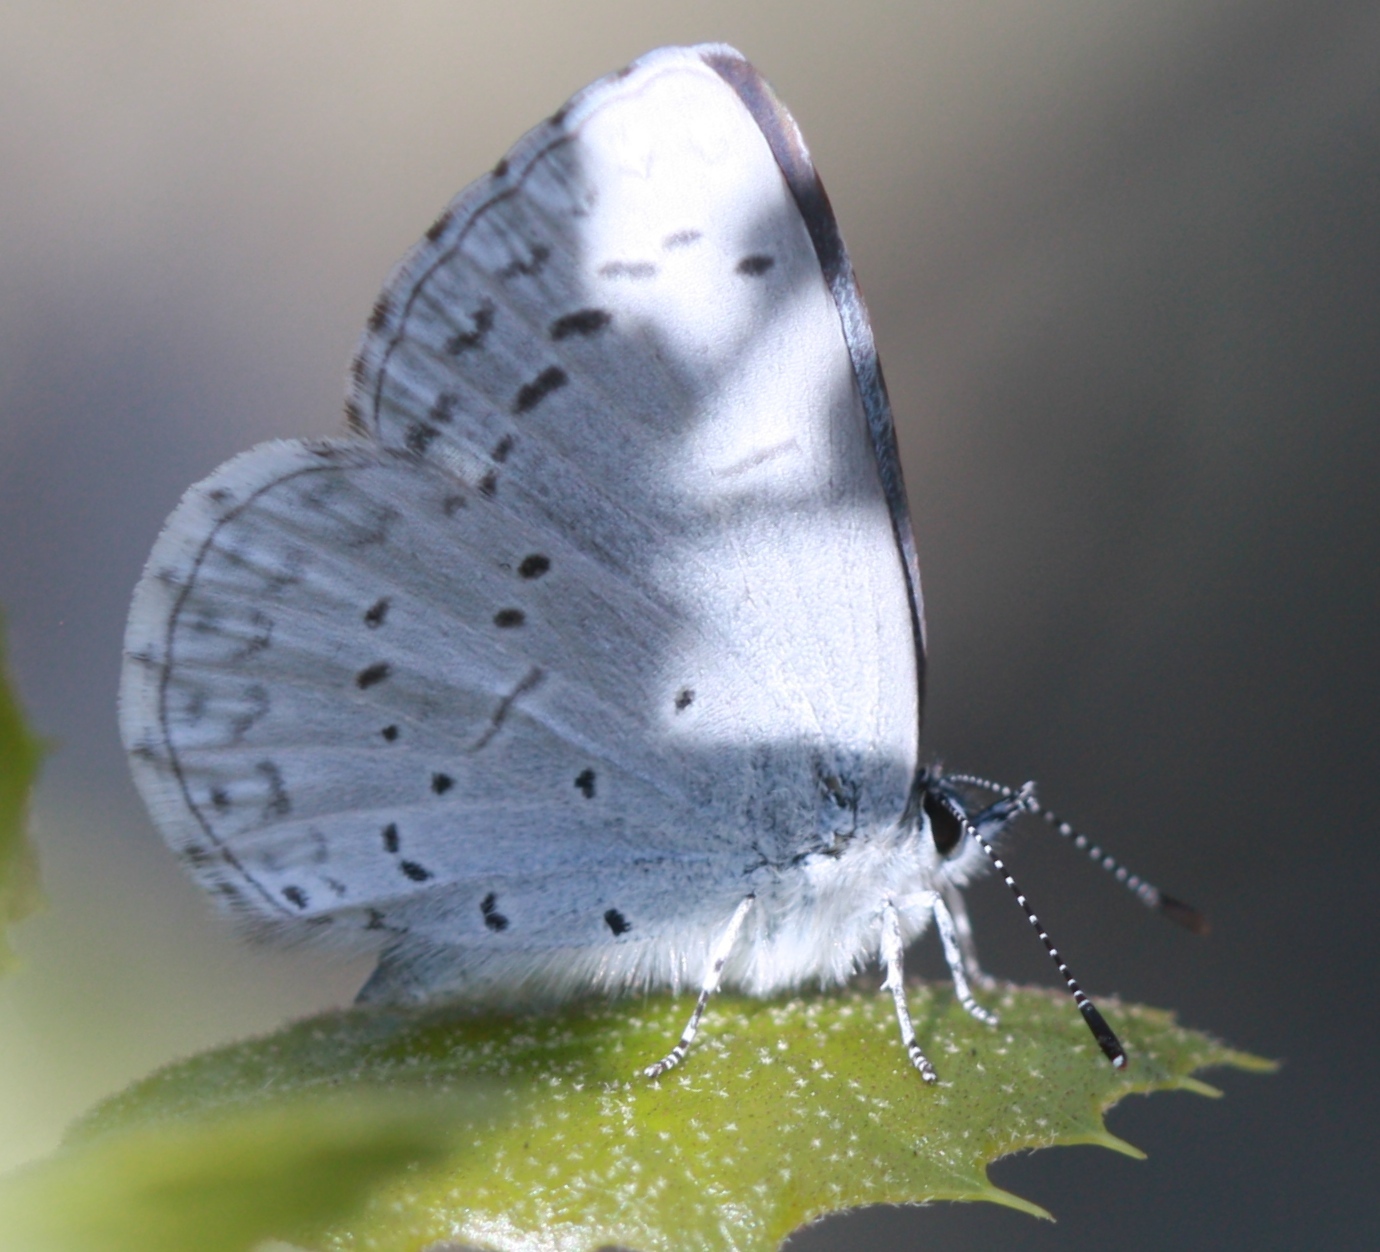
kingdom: Animalia
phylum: Arthropoda
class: Insecta
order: Lepidoptera
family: Lycaenidae
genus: Celastrina
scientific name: Celastrina ladon
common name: Spring azure
